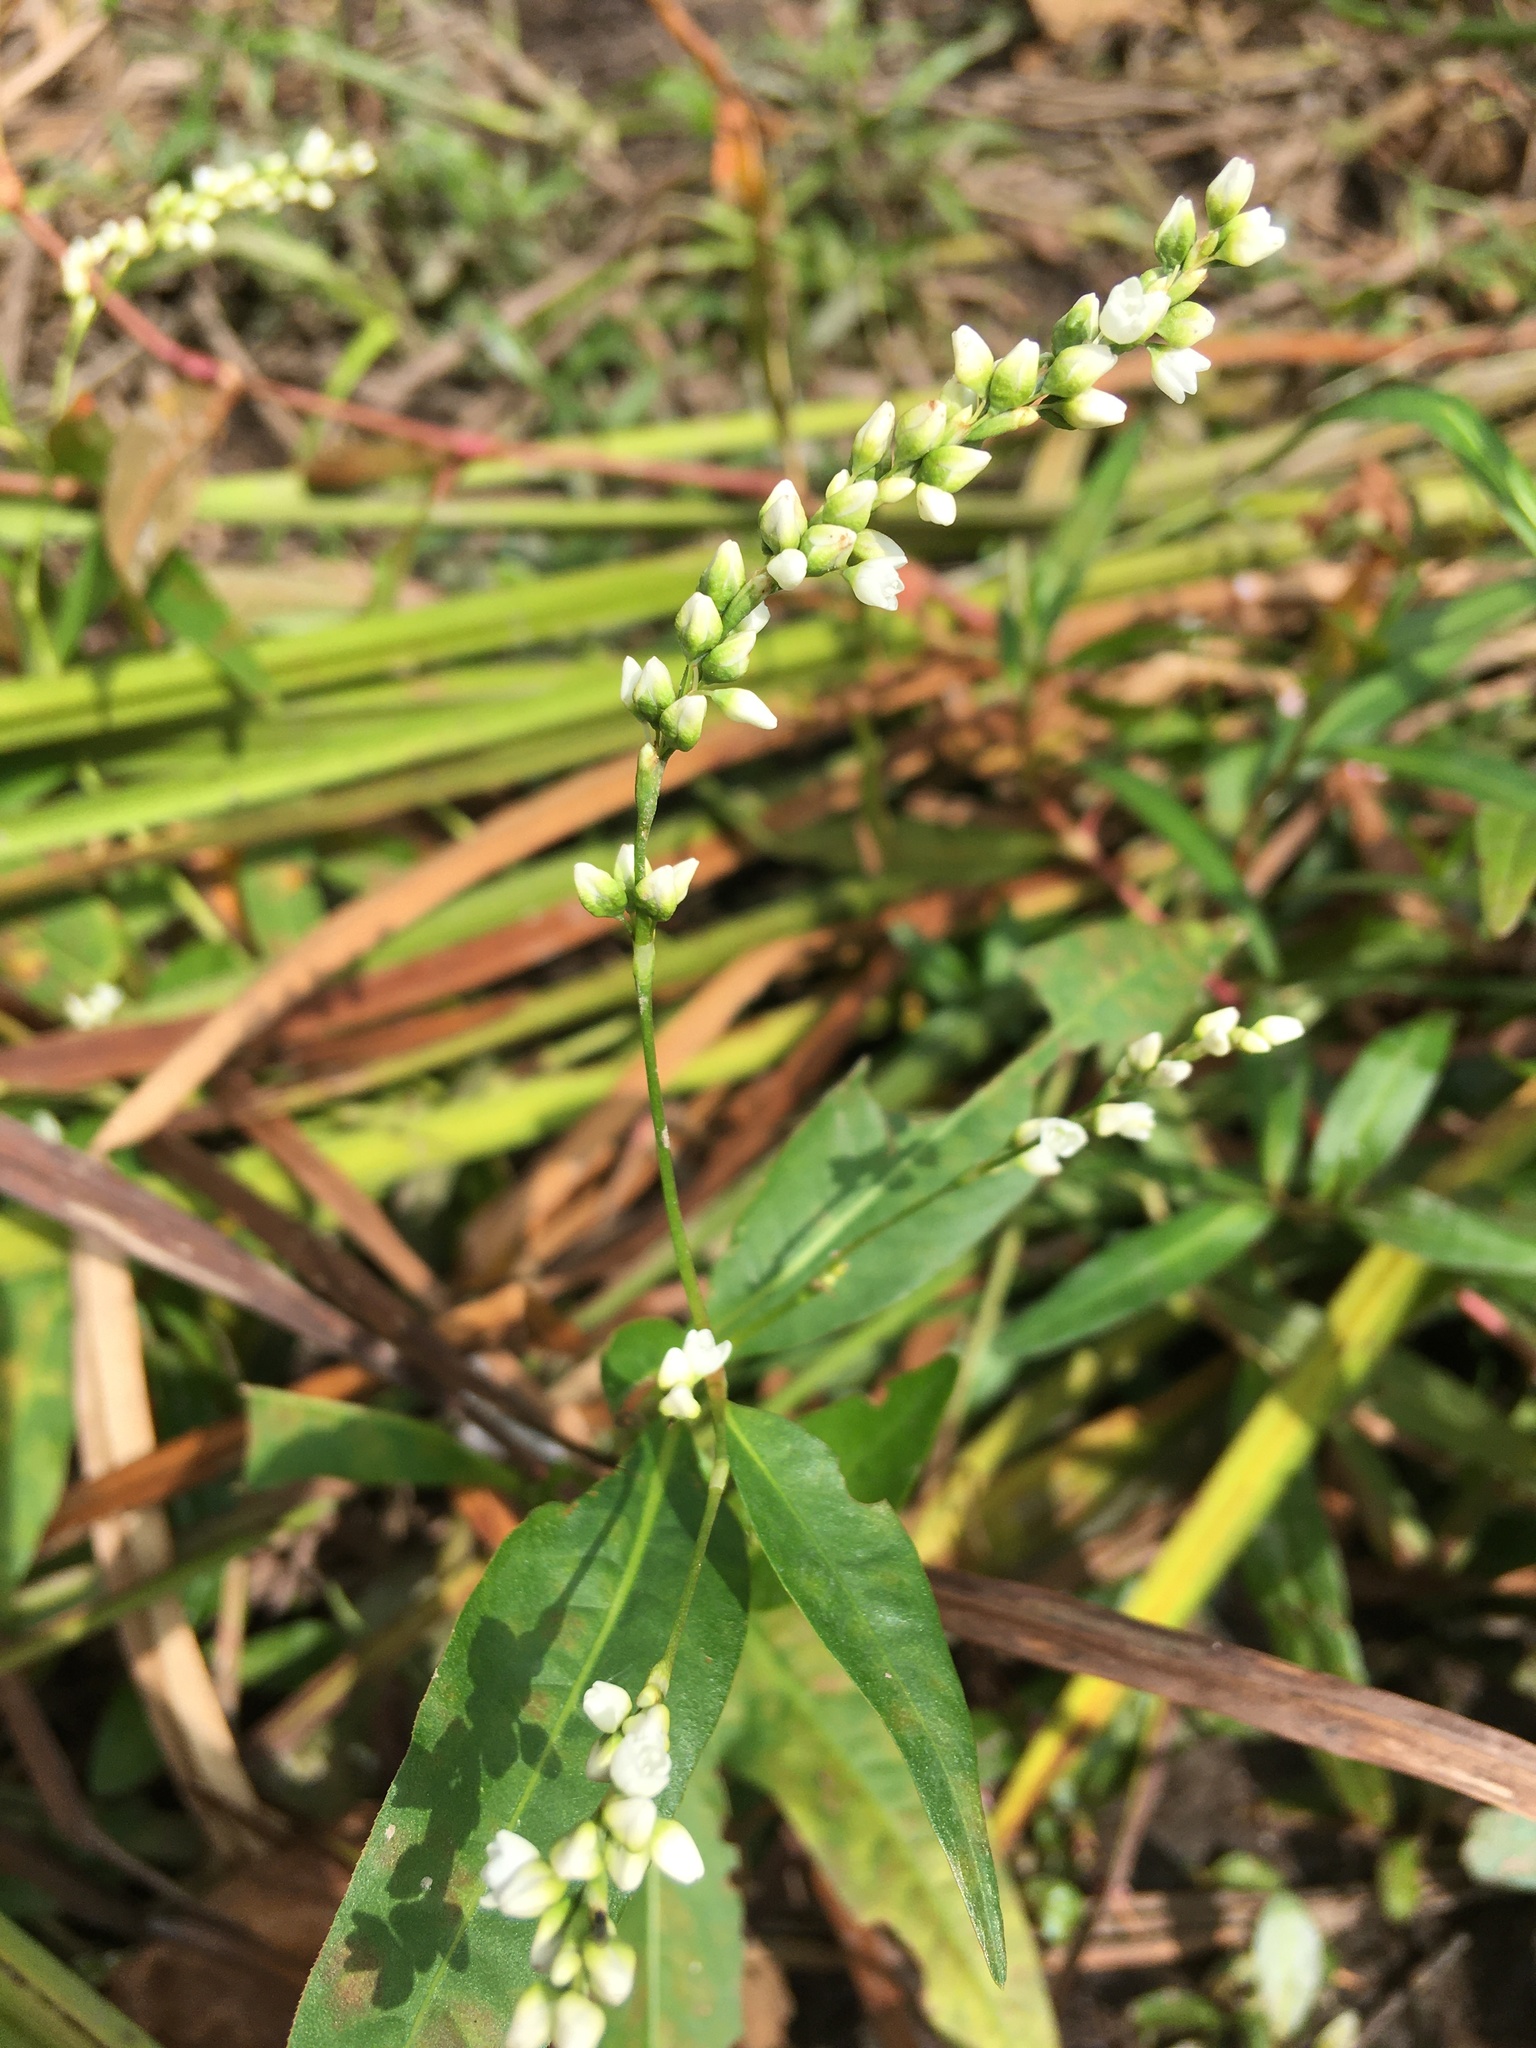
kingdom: Plantae
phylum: Tracheophyta
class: Magnoliopsida
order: Caryophyllales
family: Polygonaceae
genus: Persicaria
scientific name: Persicaria punctata
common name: Dotted smartweed
